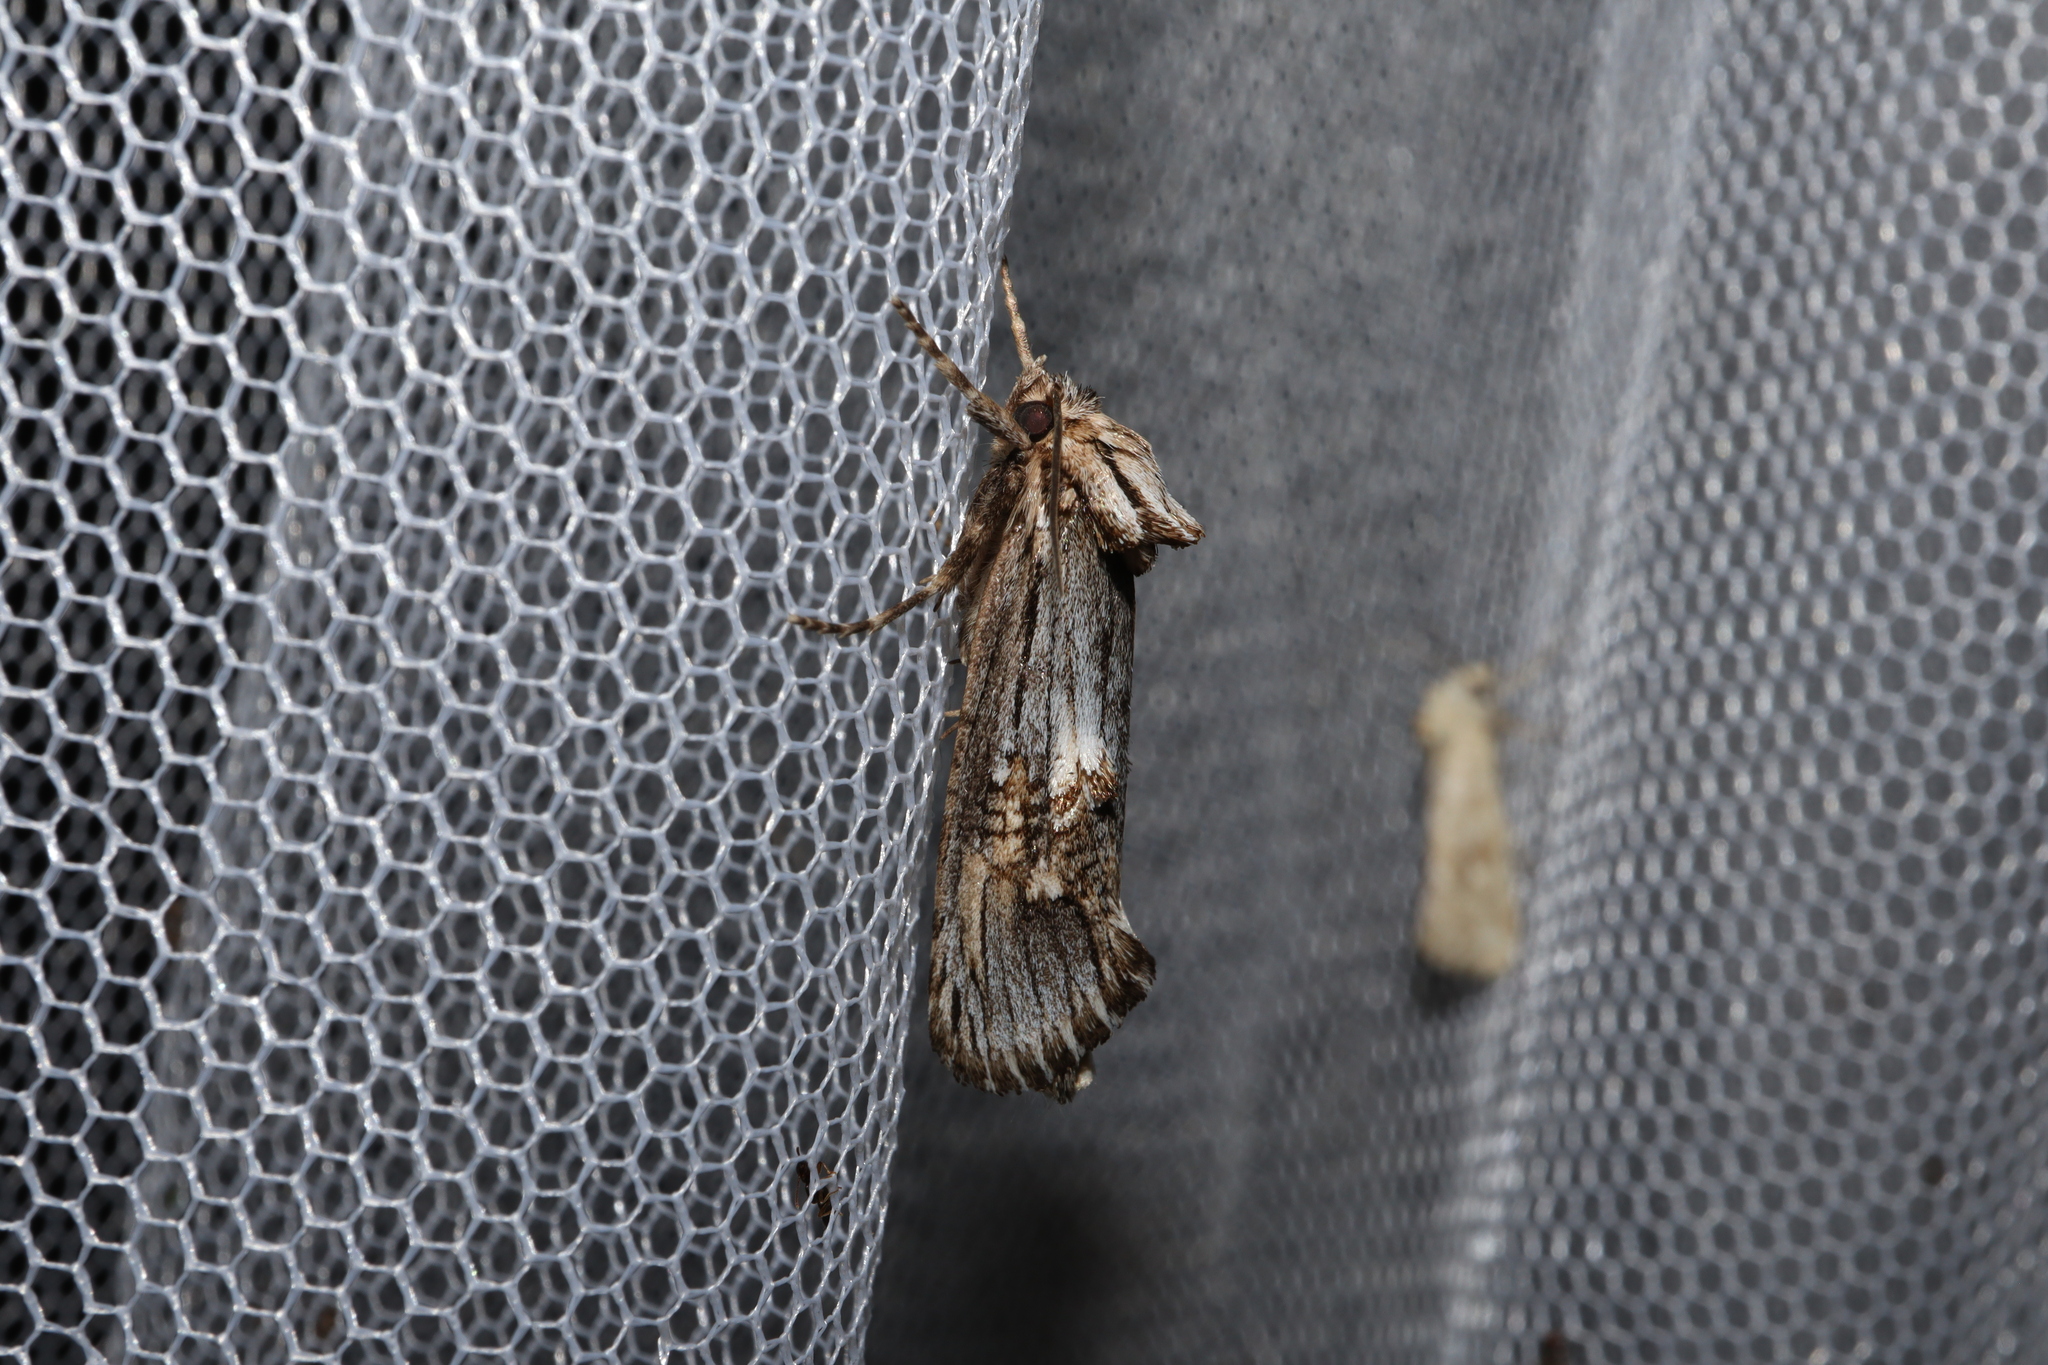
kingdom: Animalia
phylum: Arthropoda
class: Insecta
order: Lepidoptera
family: Cossidae
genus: Archaeoses
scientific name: Archaeoses pentasema
